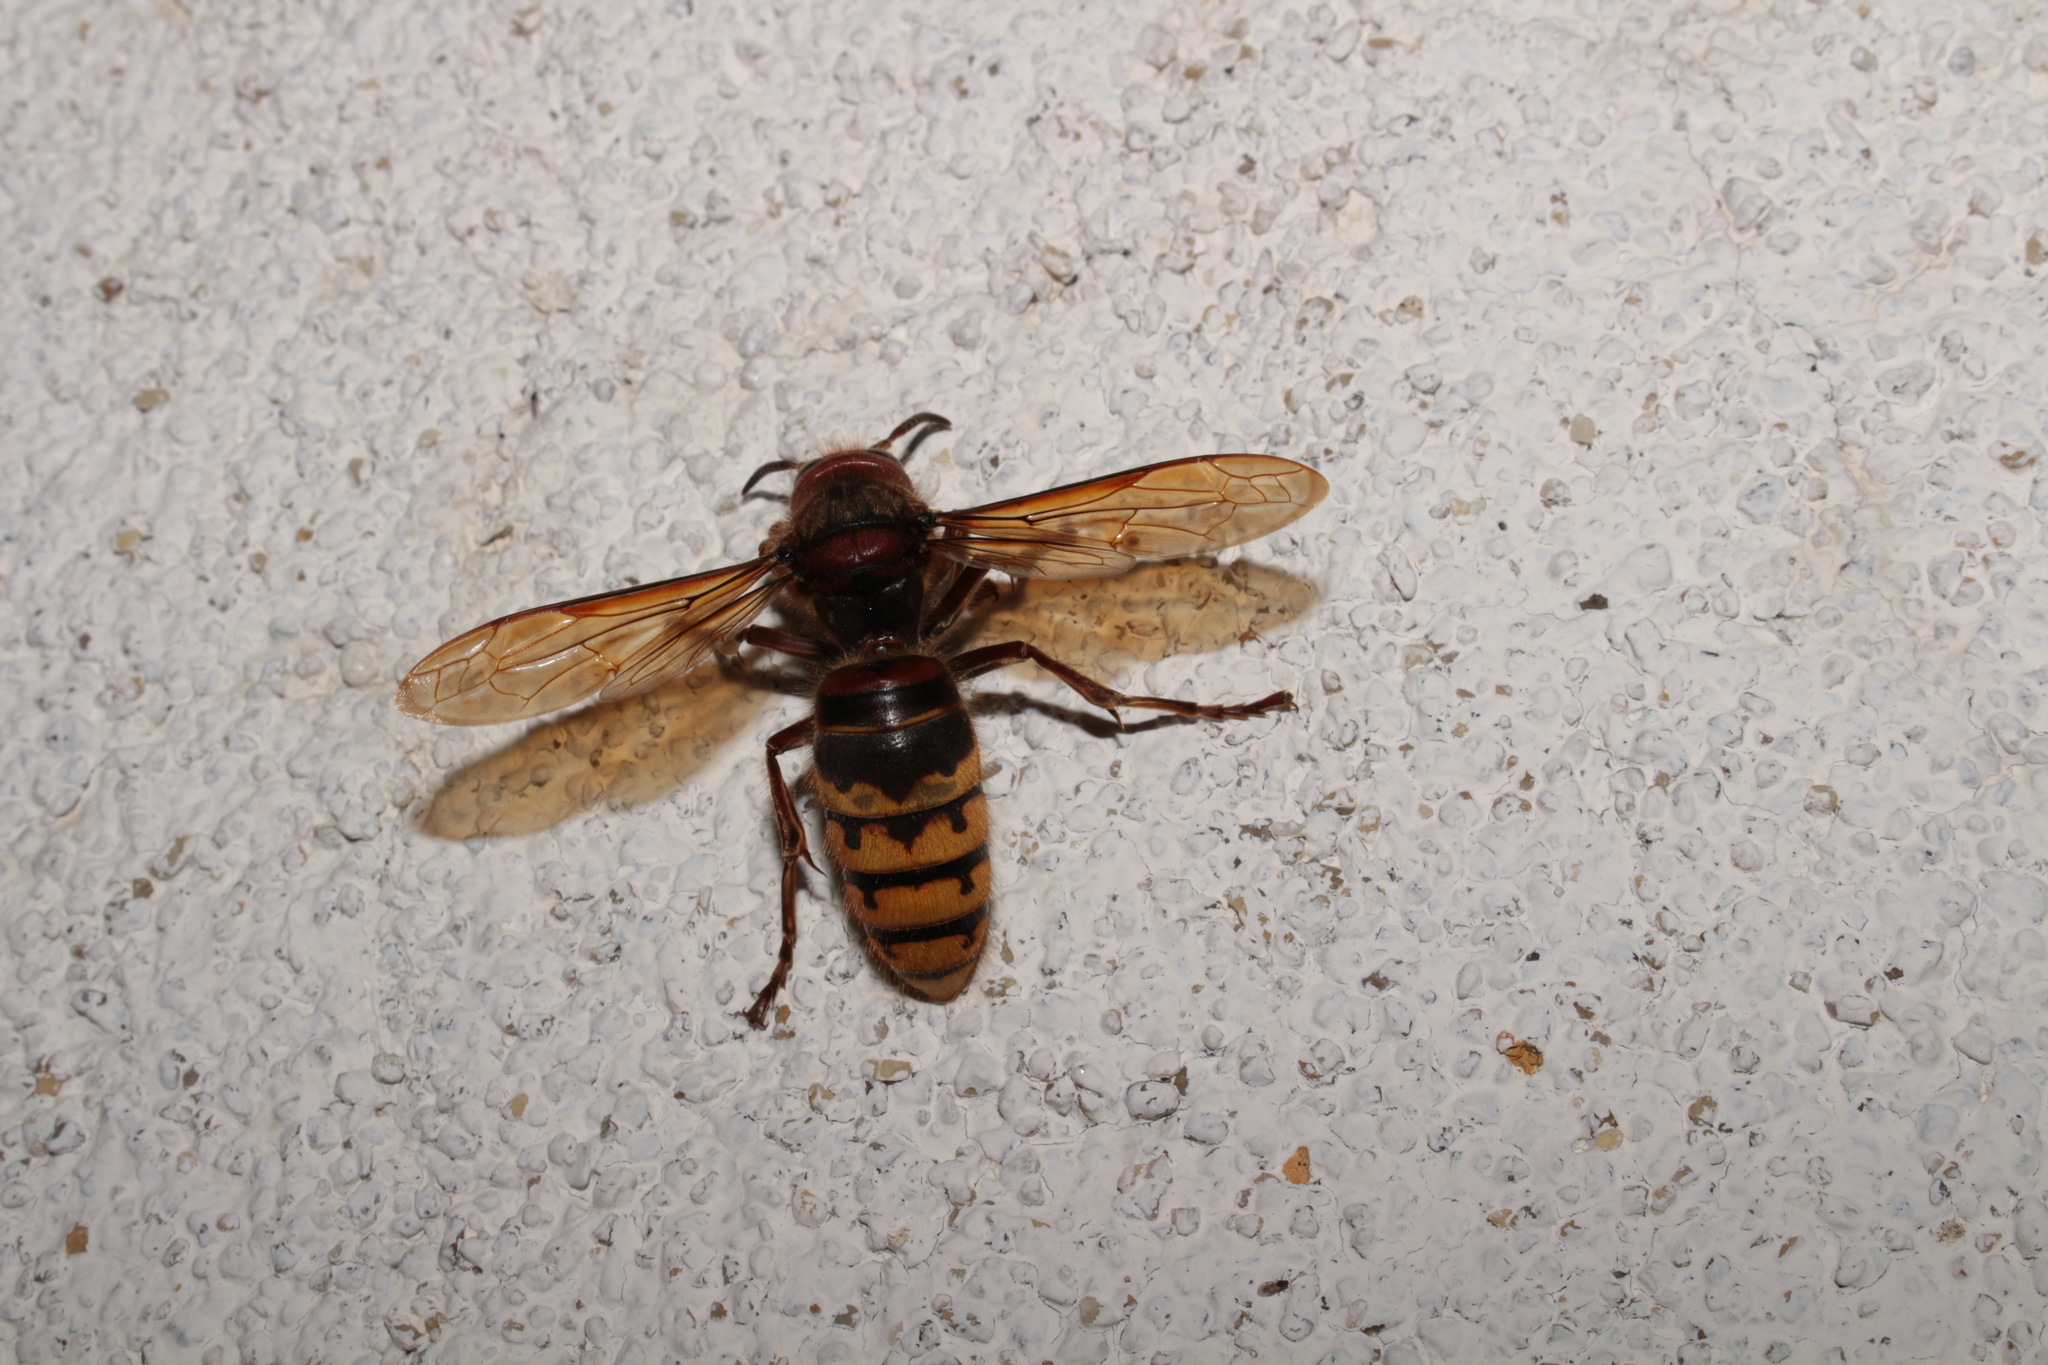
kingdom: Animalia
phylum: Arthropoda
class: Insecta
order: Hymenoptera
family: Vespidae
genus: Vespa
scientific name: Vespa crabro
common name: Hornet
